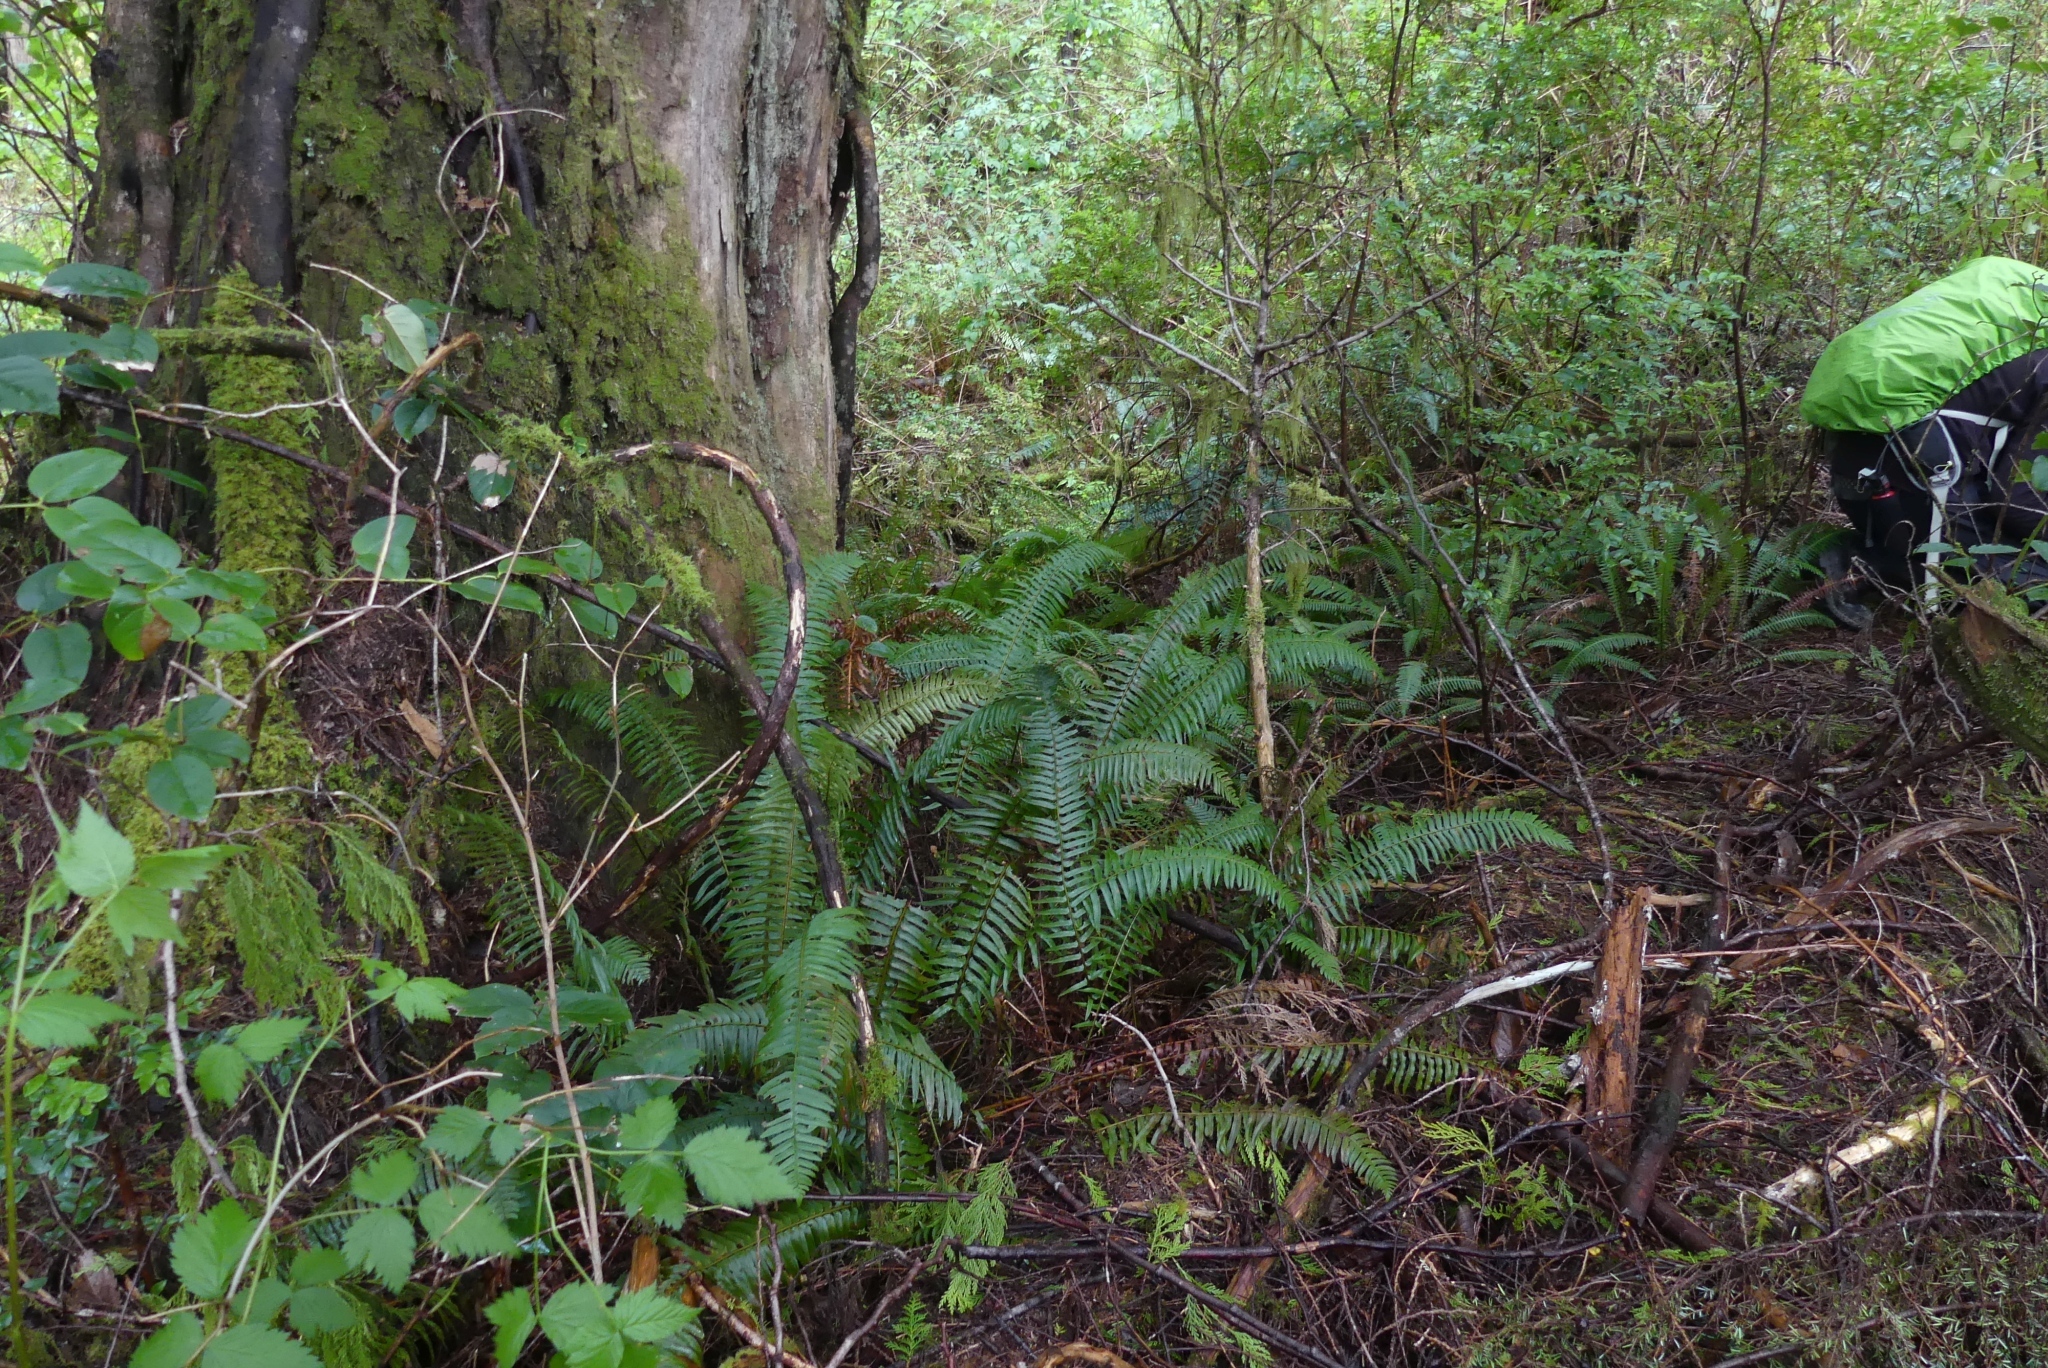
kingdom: Plantae
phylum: Tracheophyta
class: Polypodiopsida
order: Polypodiales
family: Dryopteridaceae
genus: Polystichum
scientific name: Polystichum munitum
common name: Western sword-fern
